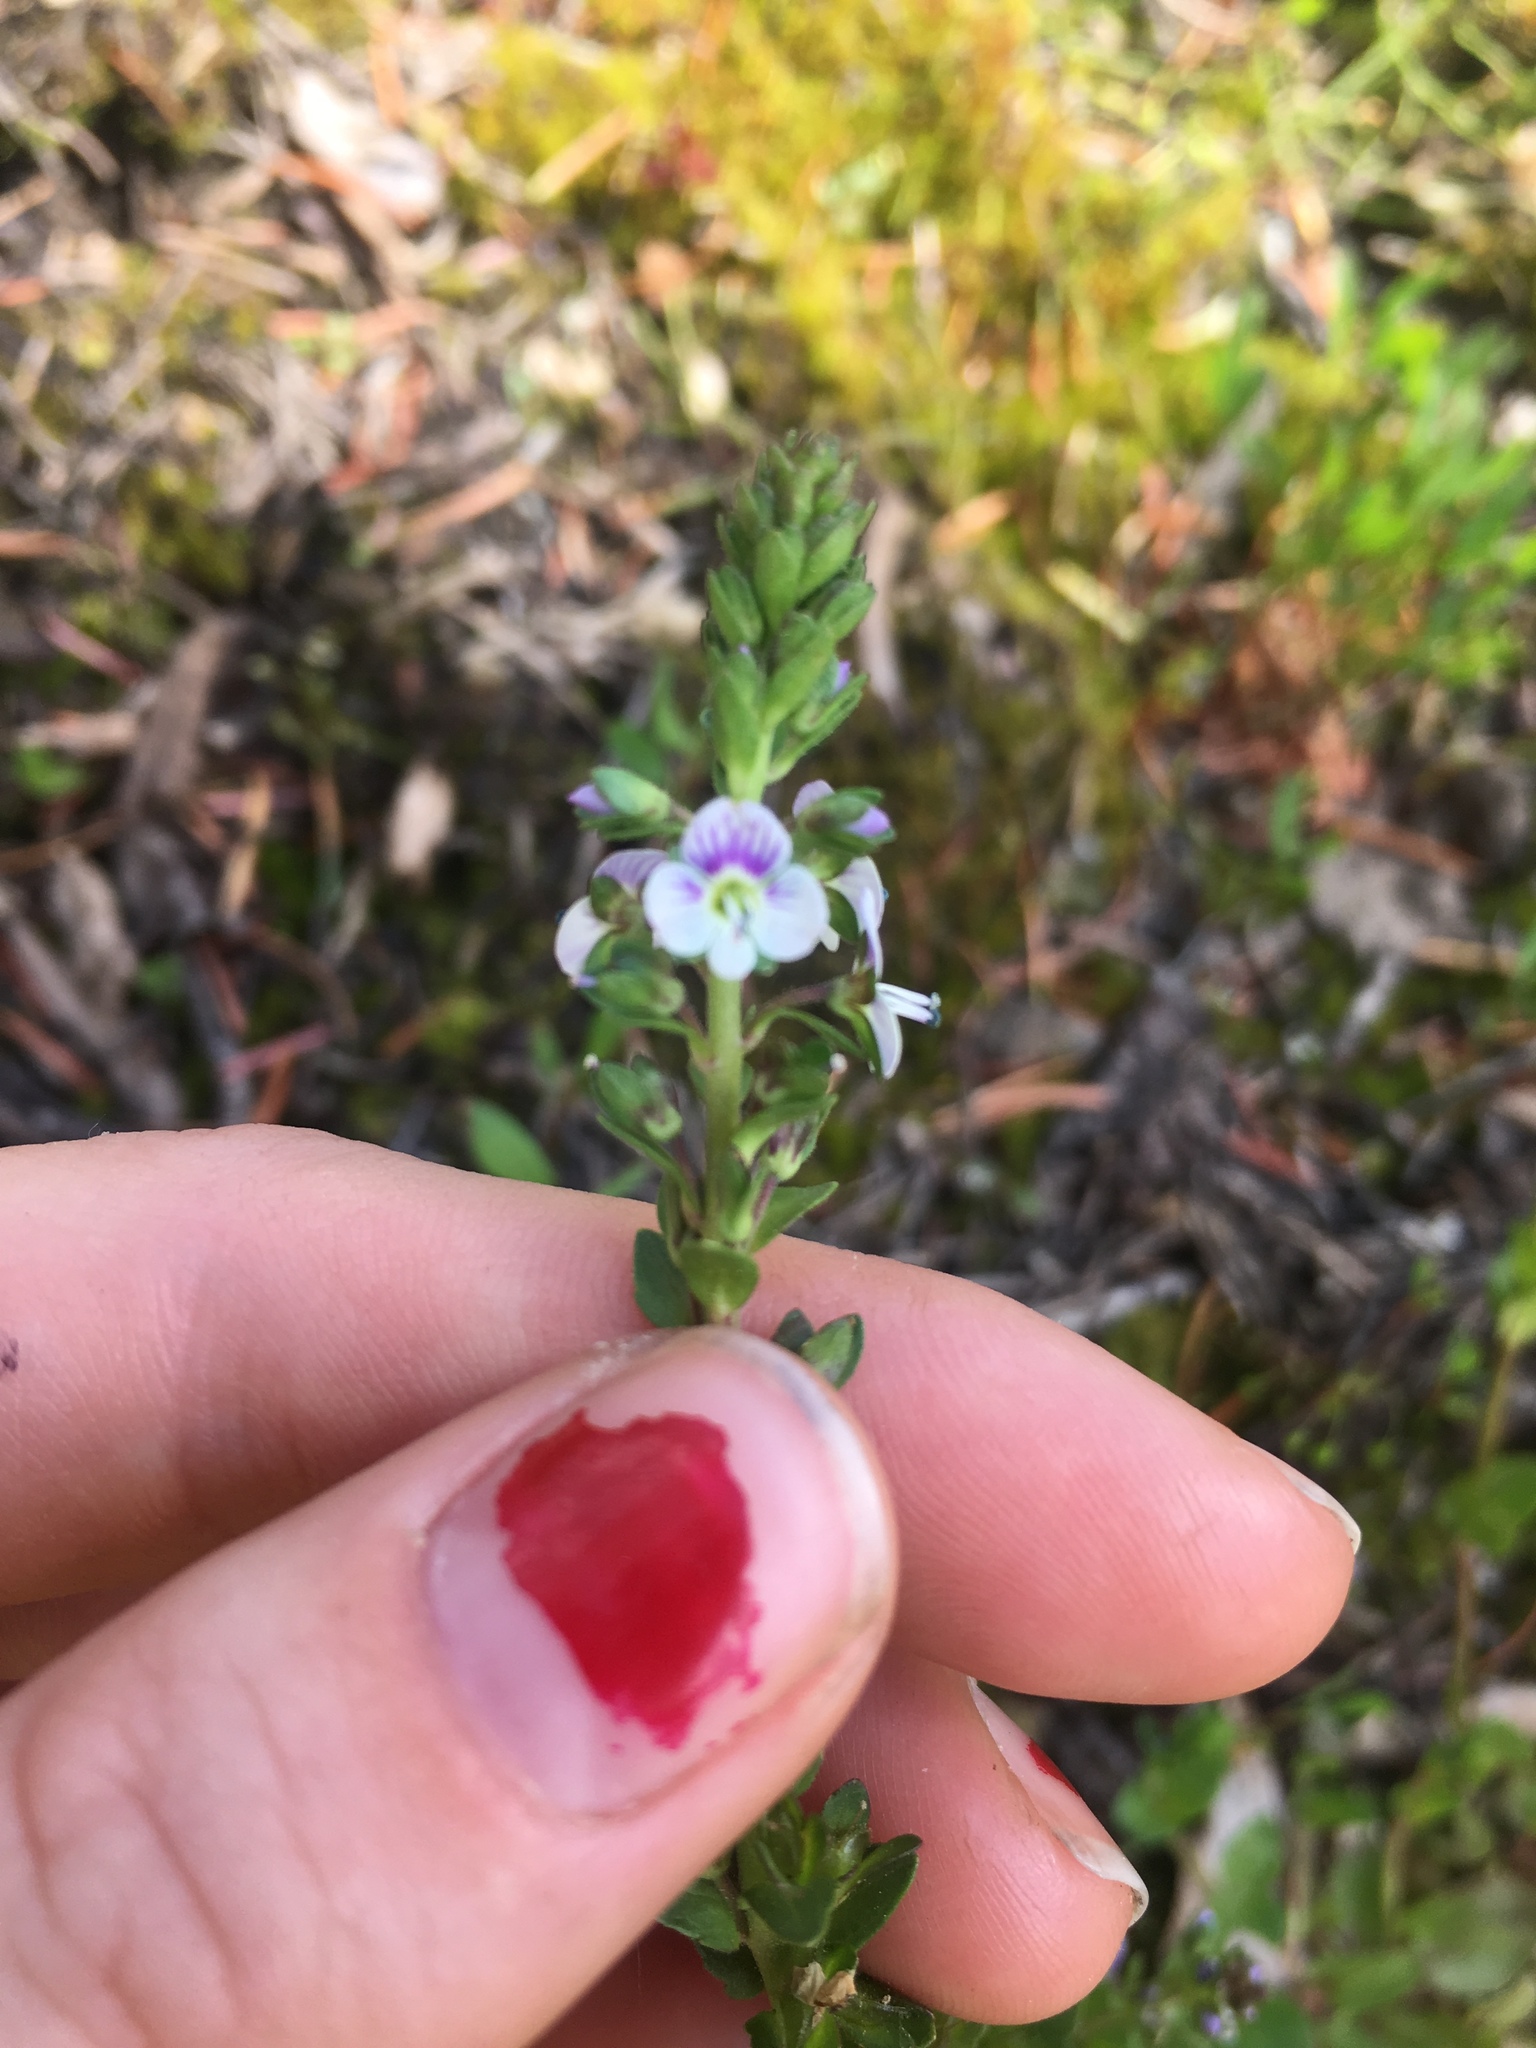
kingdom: Plantae
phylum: Tracheophyta
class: Magnoliopsida
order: Lamiales
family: Plantaginaceae
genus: Veronica
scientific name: Veronica serpyllifolia
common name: Thyme-leaved speedwell
